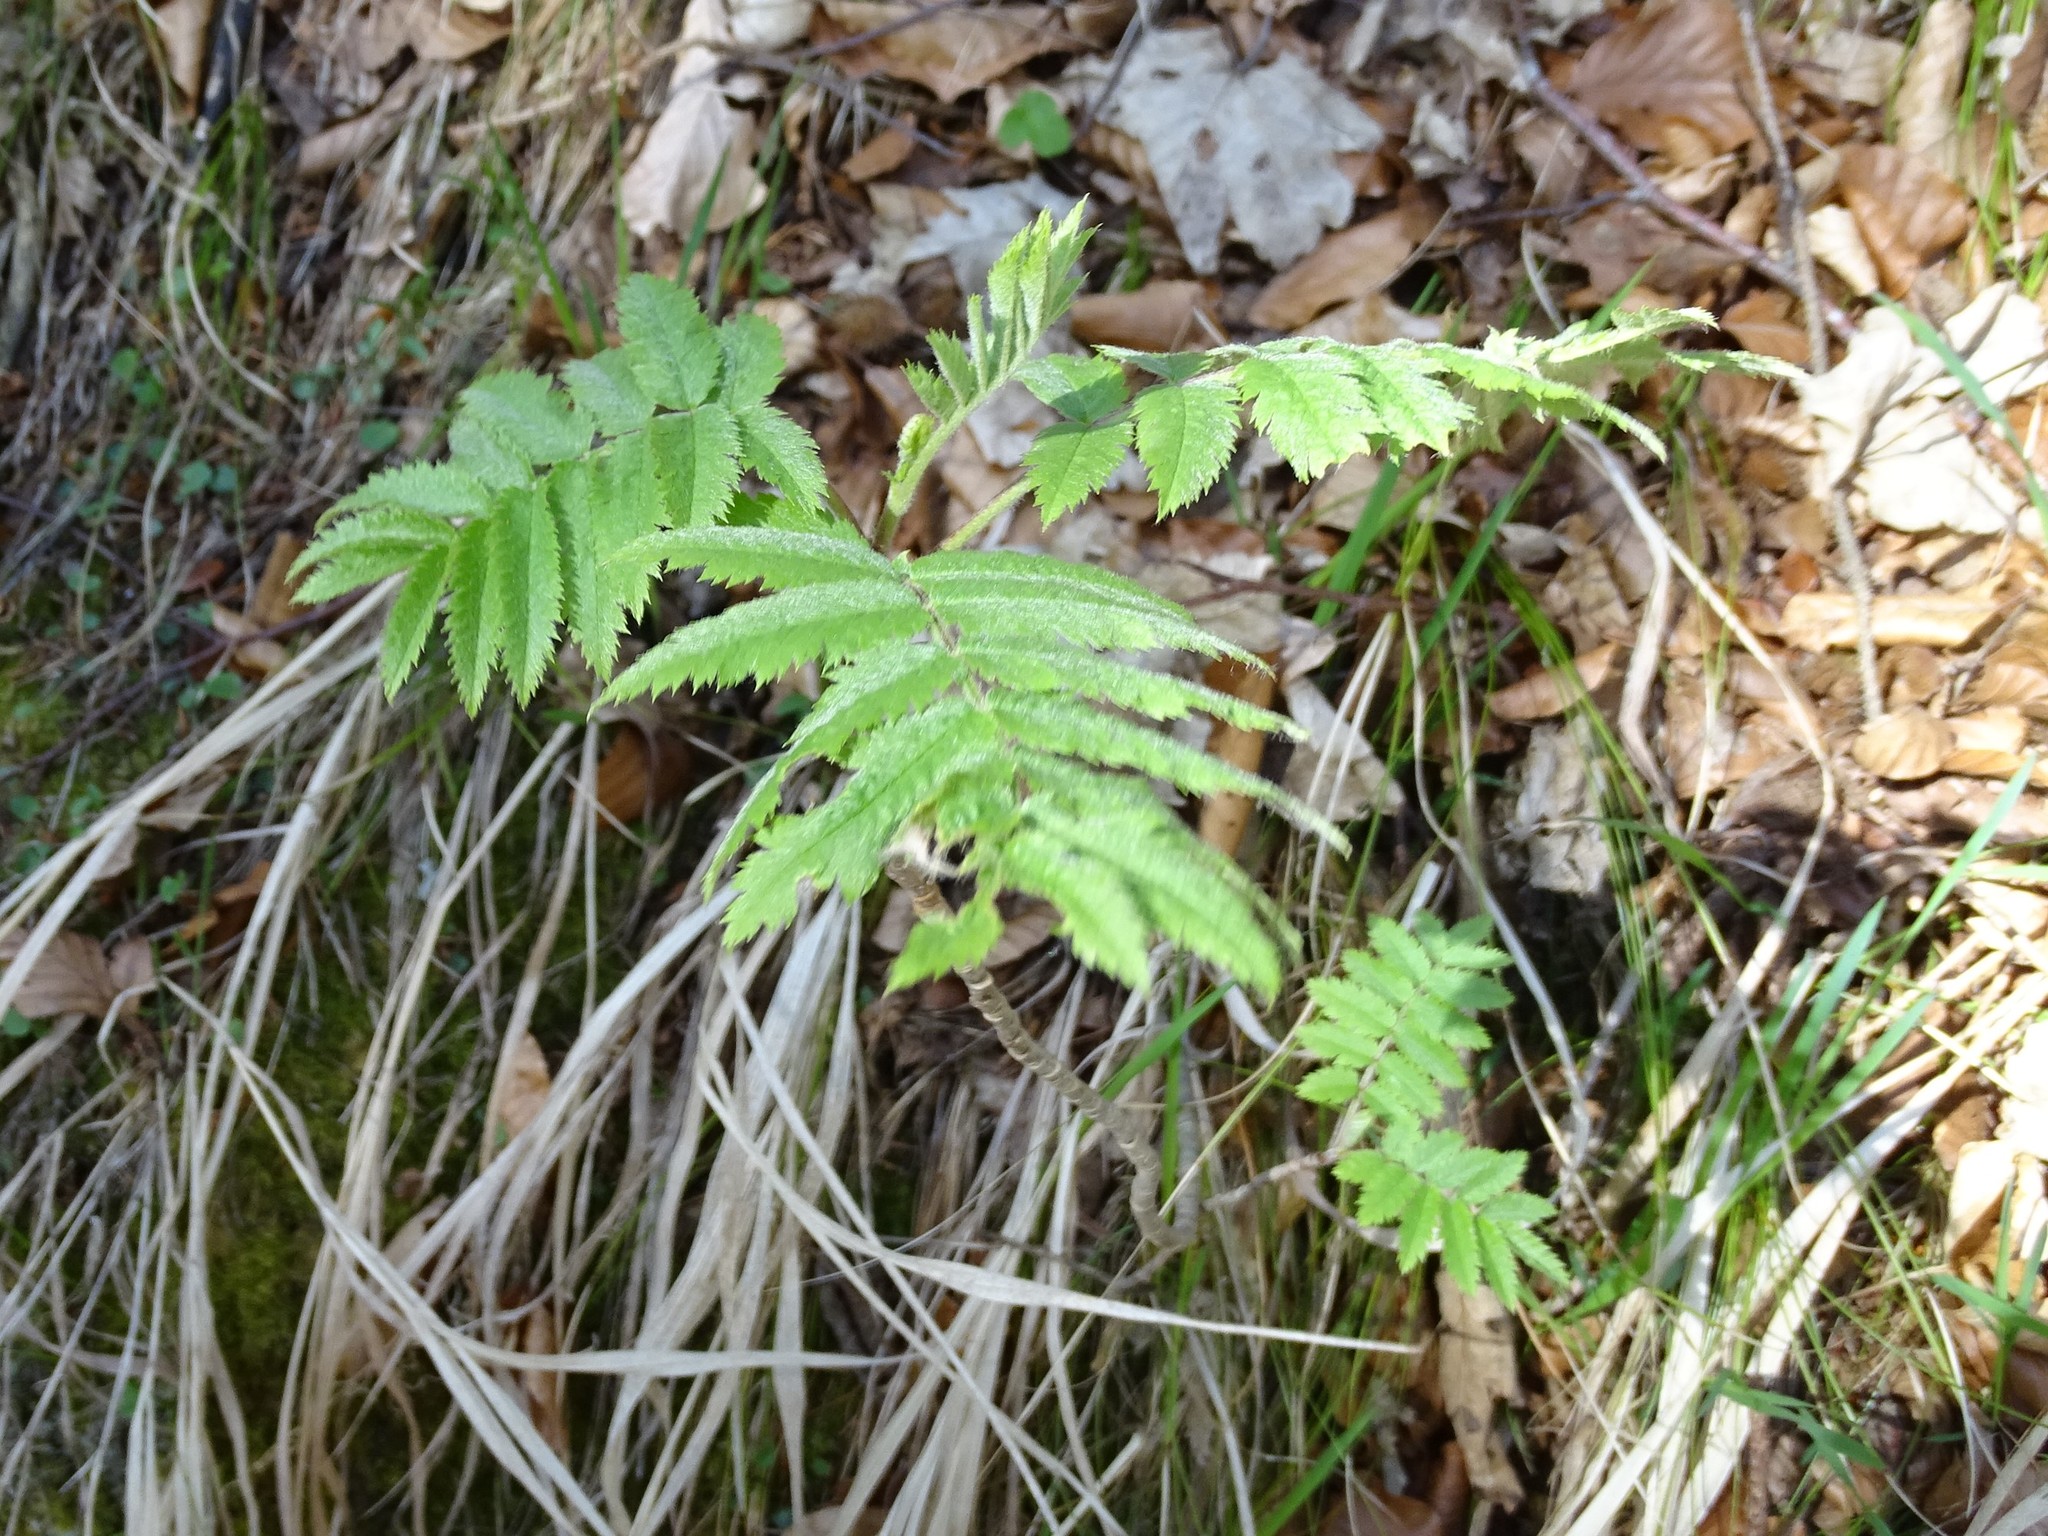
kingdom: Plantae
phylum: Tracheophyta
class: Magnoliopsida
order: Rosales
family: Rosaceae
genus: Sorbus
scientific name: Sorbus aucuparia
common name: Rowan
